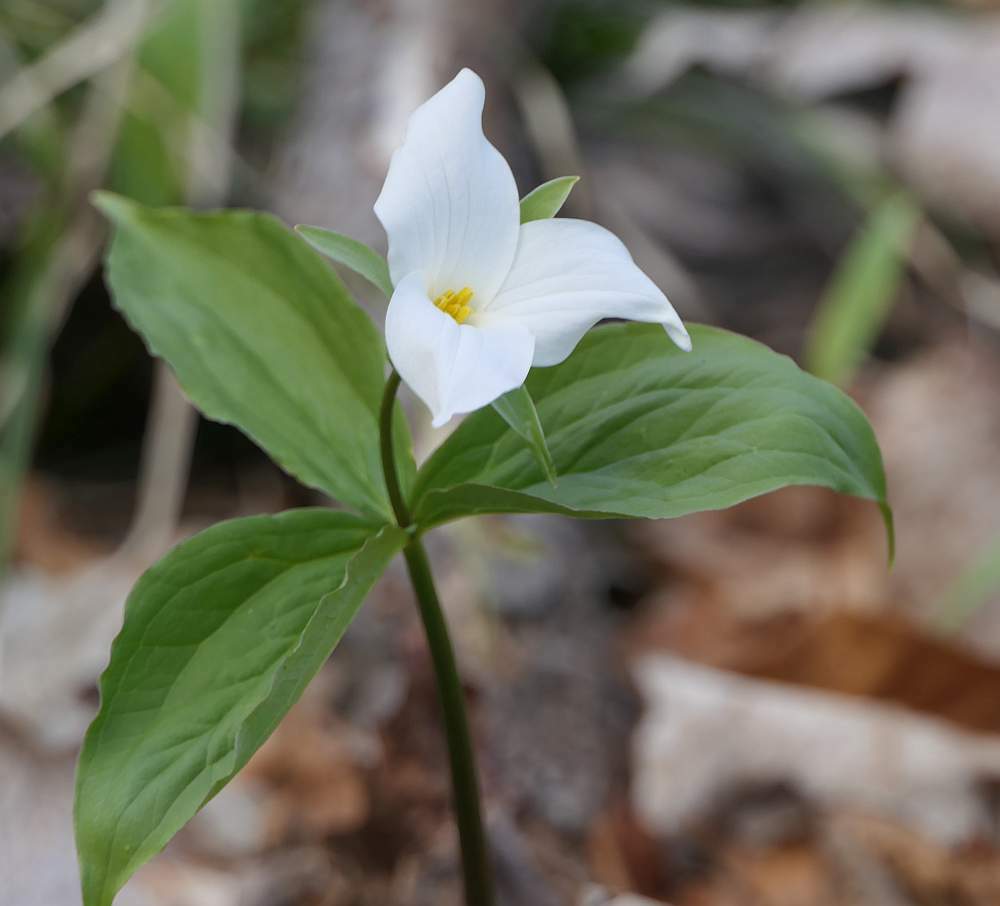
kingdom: Plantae
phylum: Tracheophyta
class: Liliopsida
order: Liliales
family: Melanthiaceae
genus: Trillium
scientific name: Trillium grandiflorum
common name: Great white trillium
